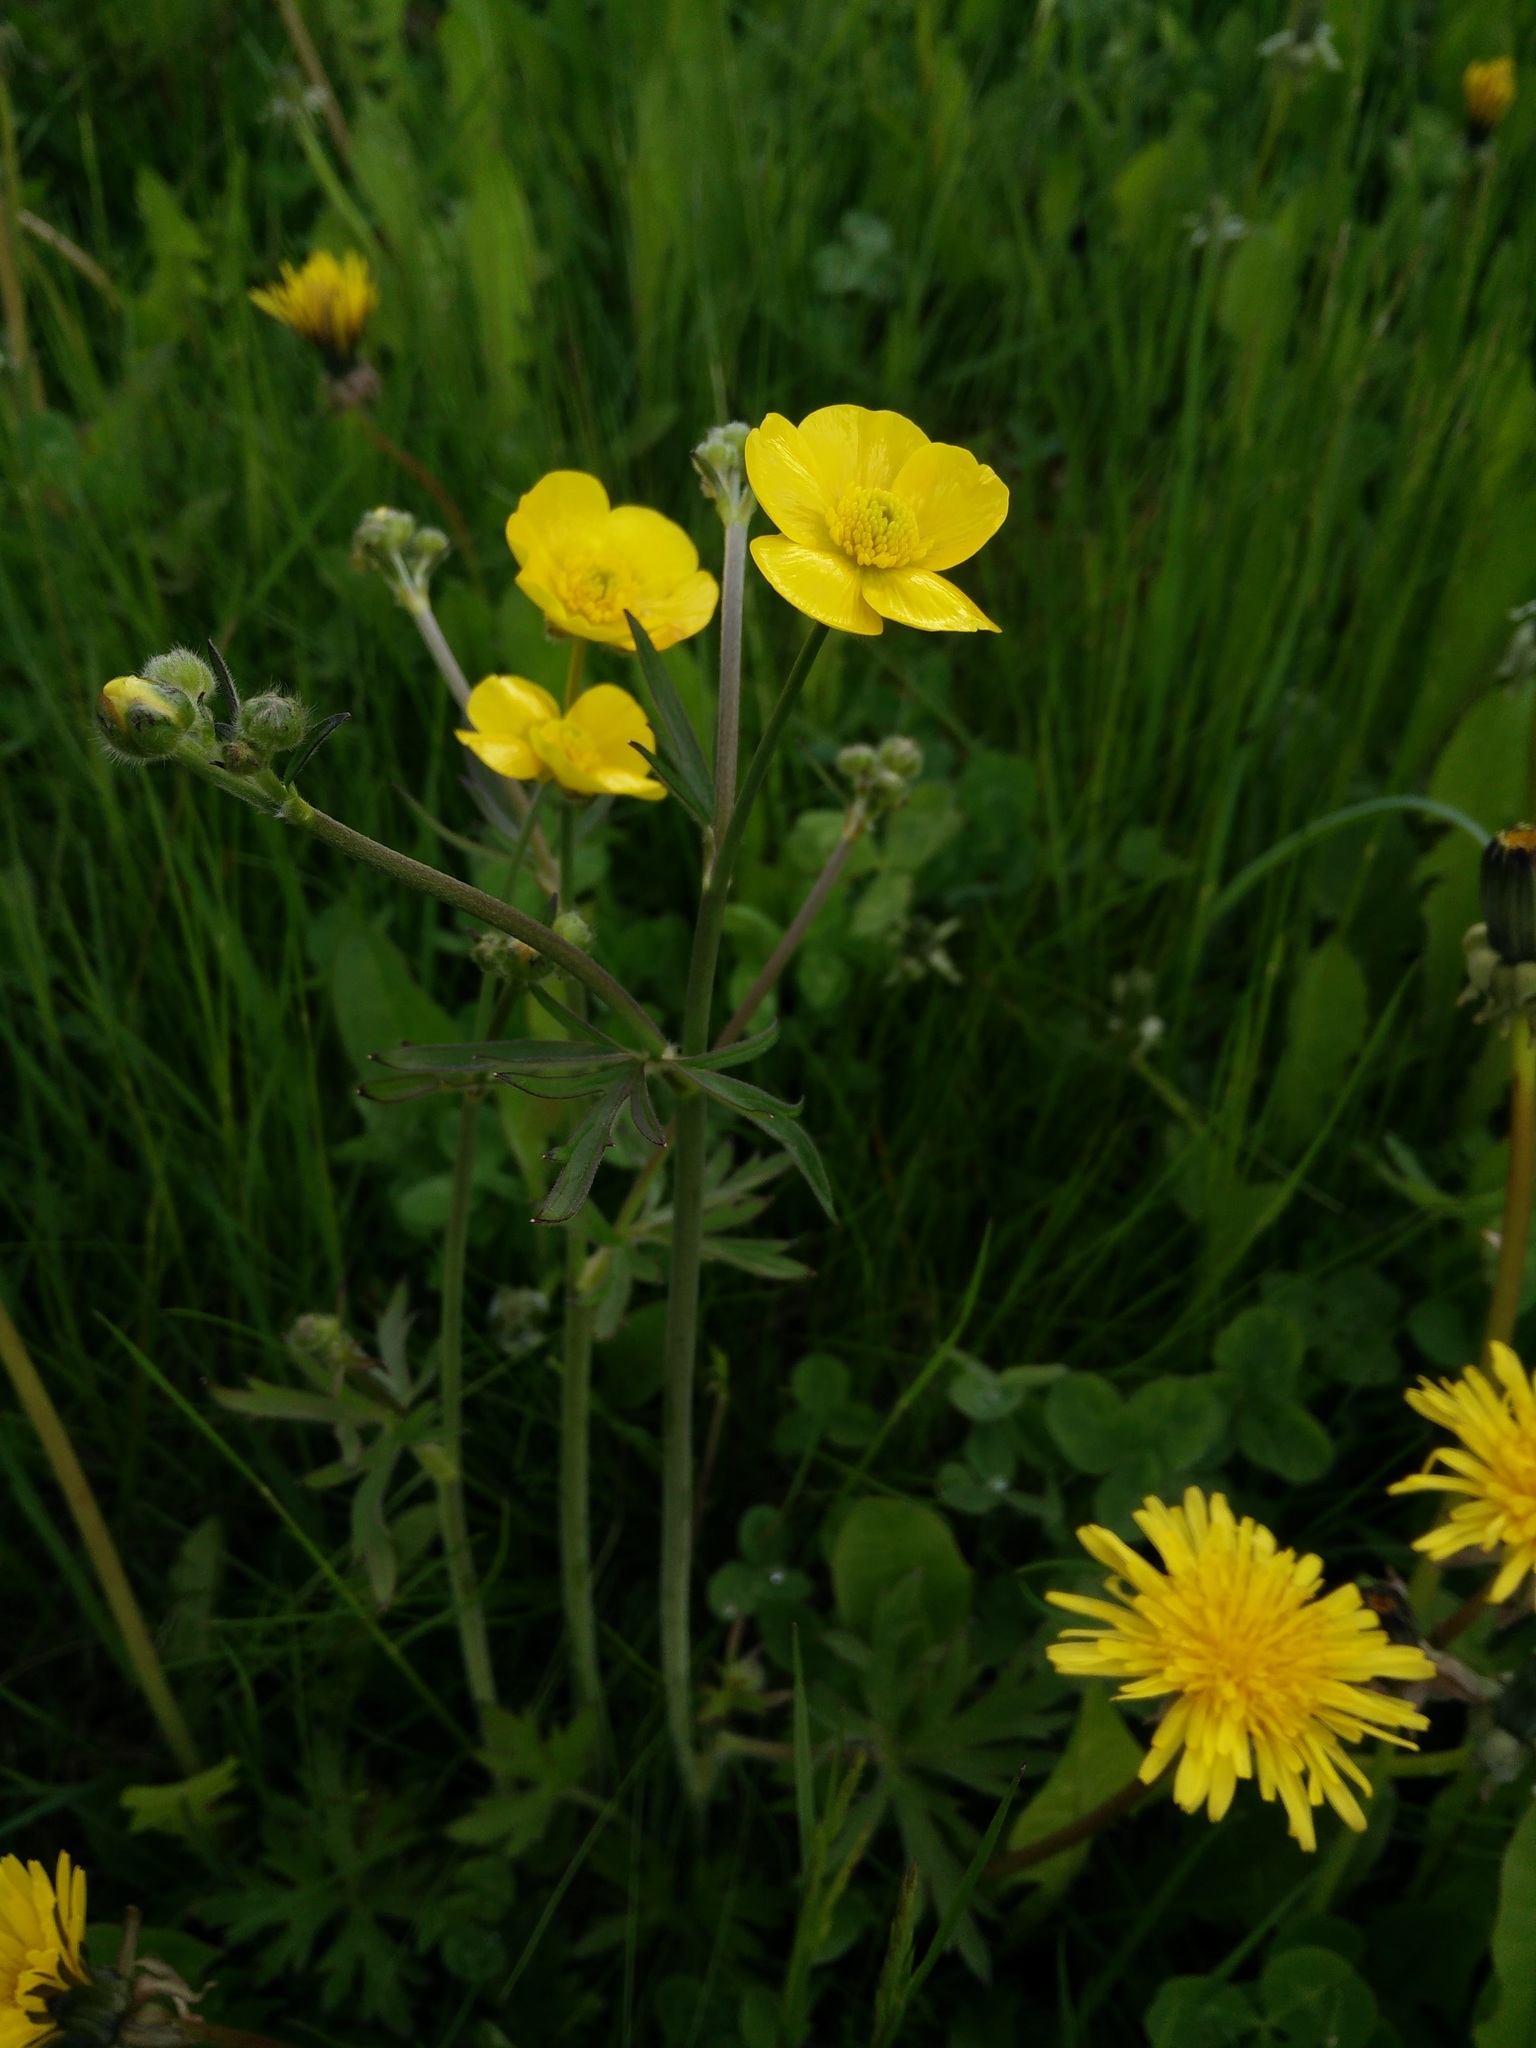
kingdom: Plantae
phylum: Tracheophyta
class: Magnoliopsida
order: Ranunculales
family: Ranunculaceae
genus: Ranunculus
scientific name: Ranunculus acris
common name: Meadow buttercup
